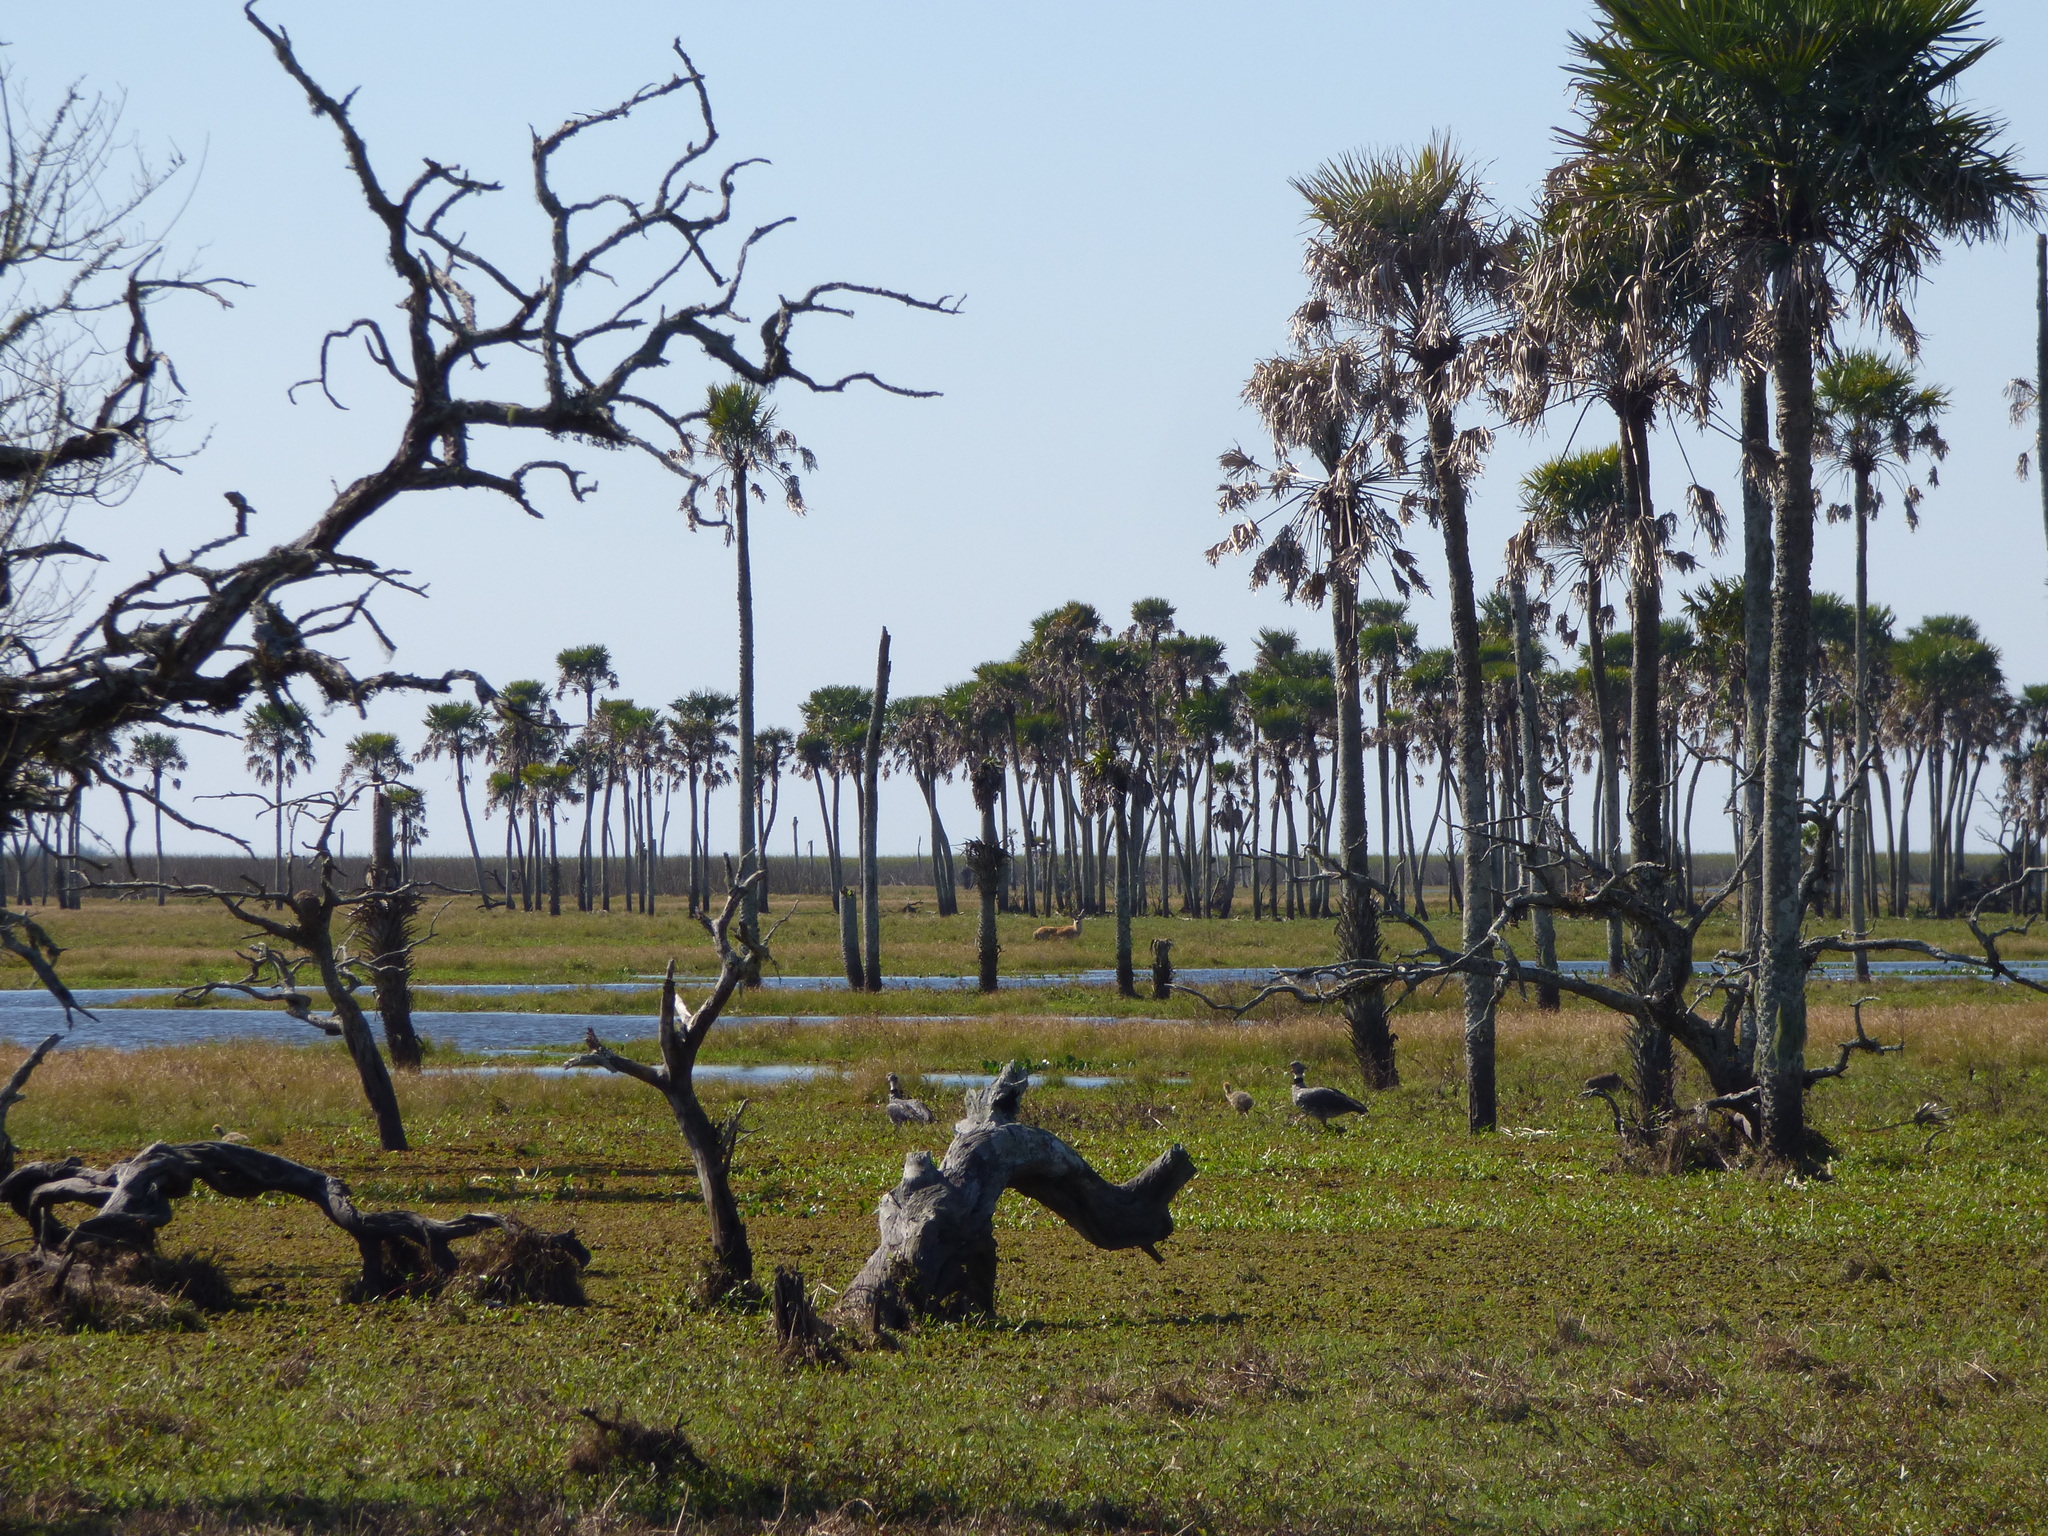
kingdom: Animalia
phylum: Chordata
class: Mammalia
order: Artiodactyla
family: Cervidae
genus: Blastocerus
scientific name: Blastocerus dichotomus
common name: Marsh deer
